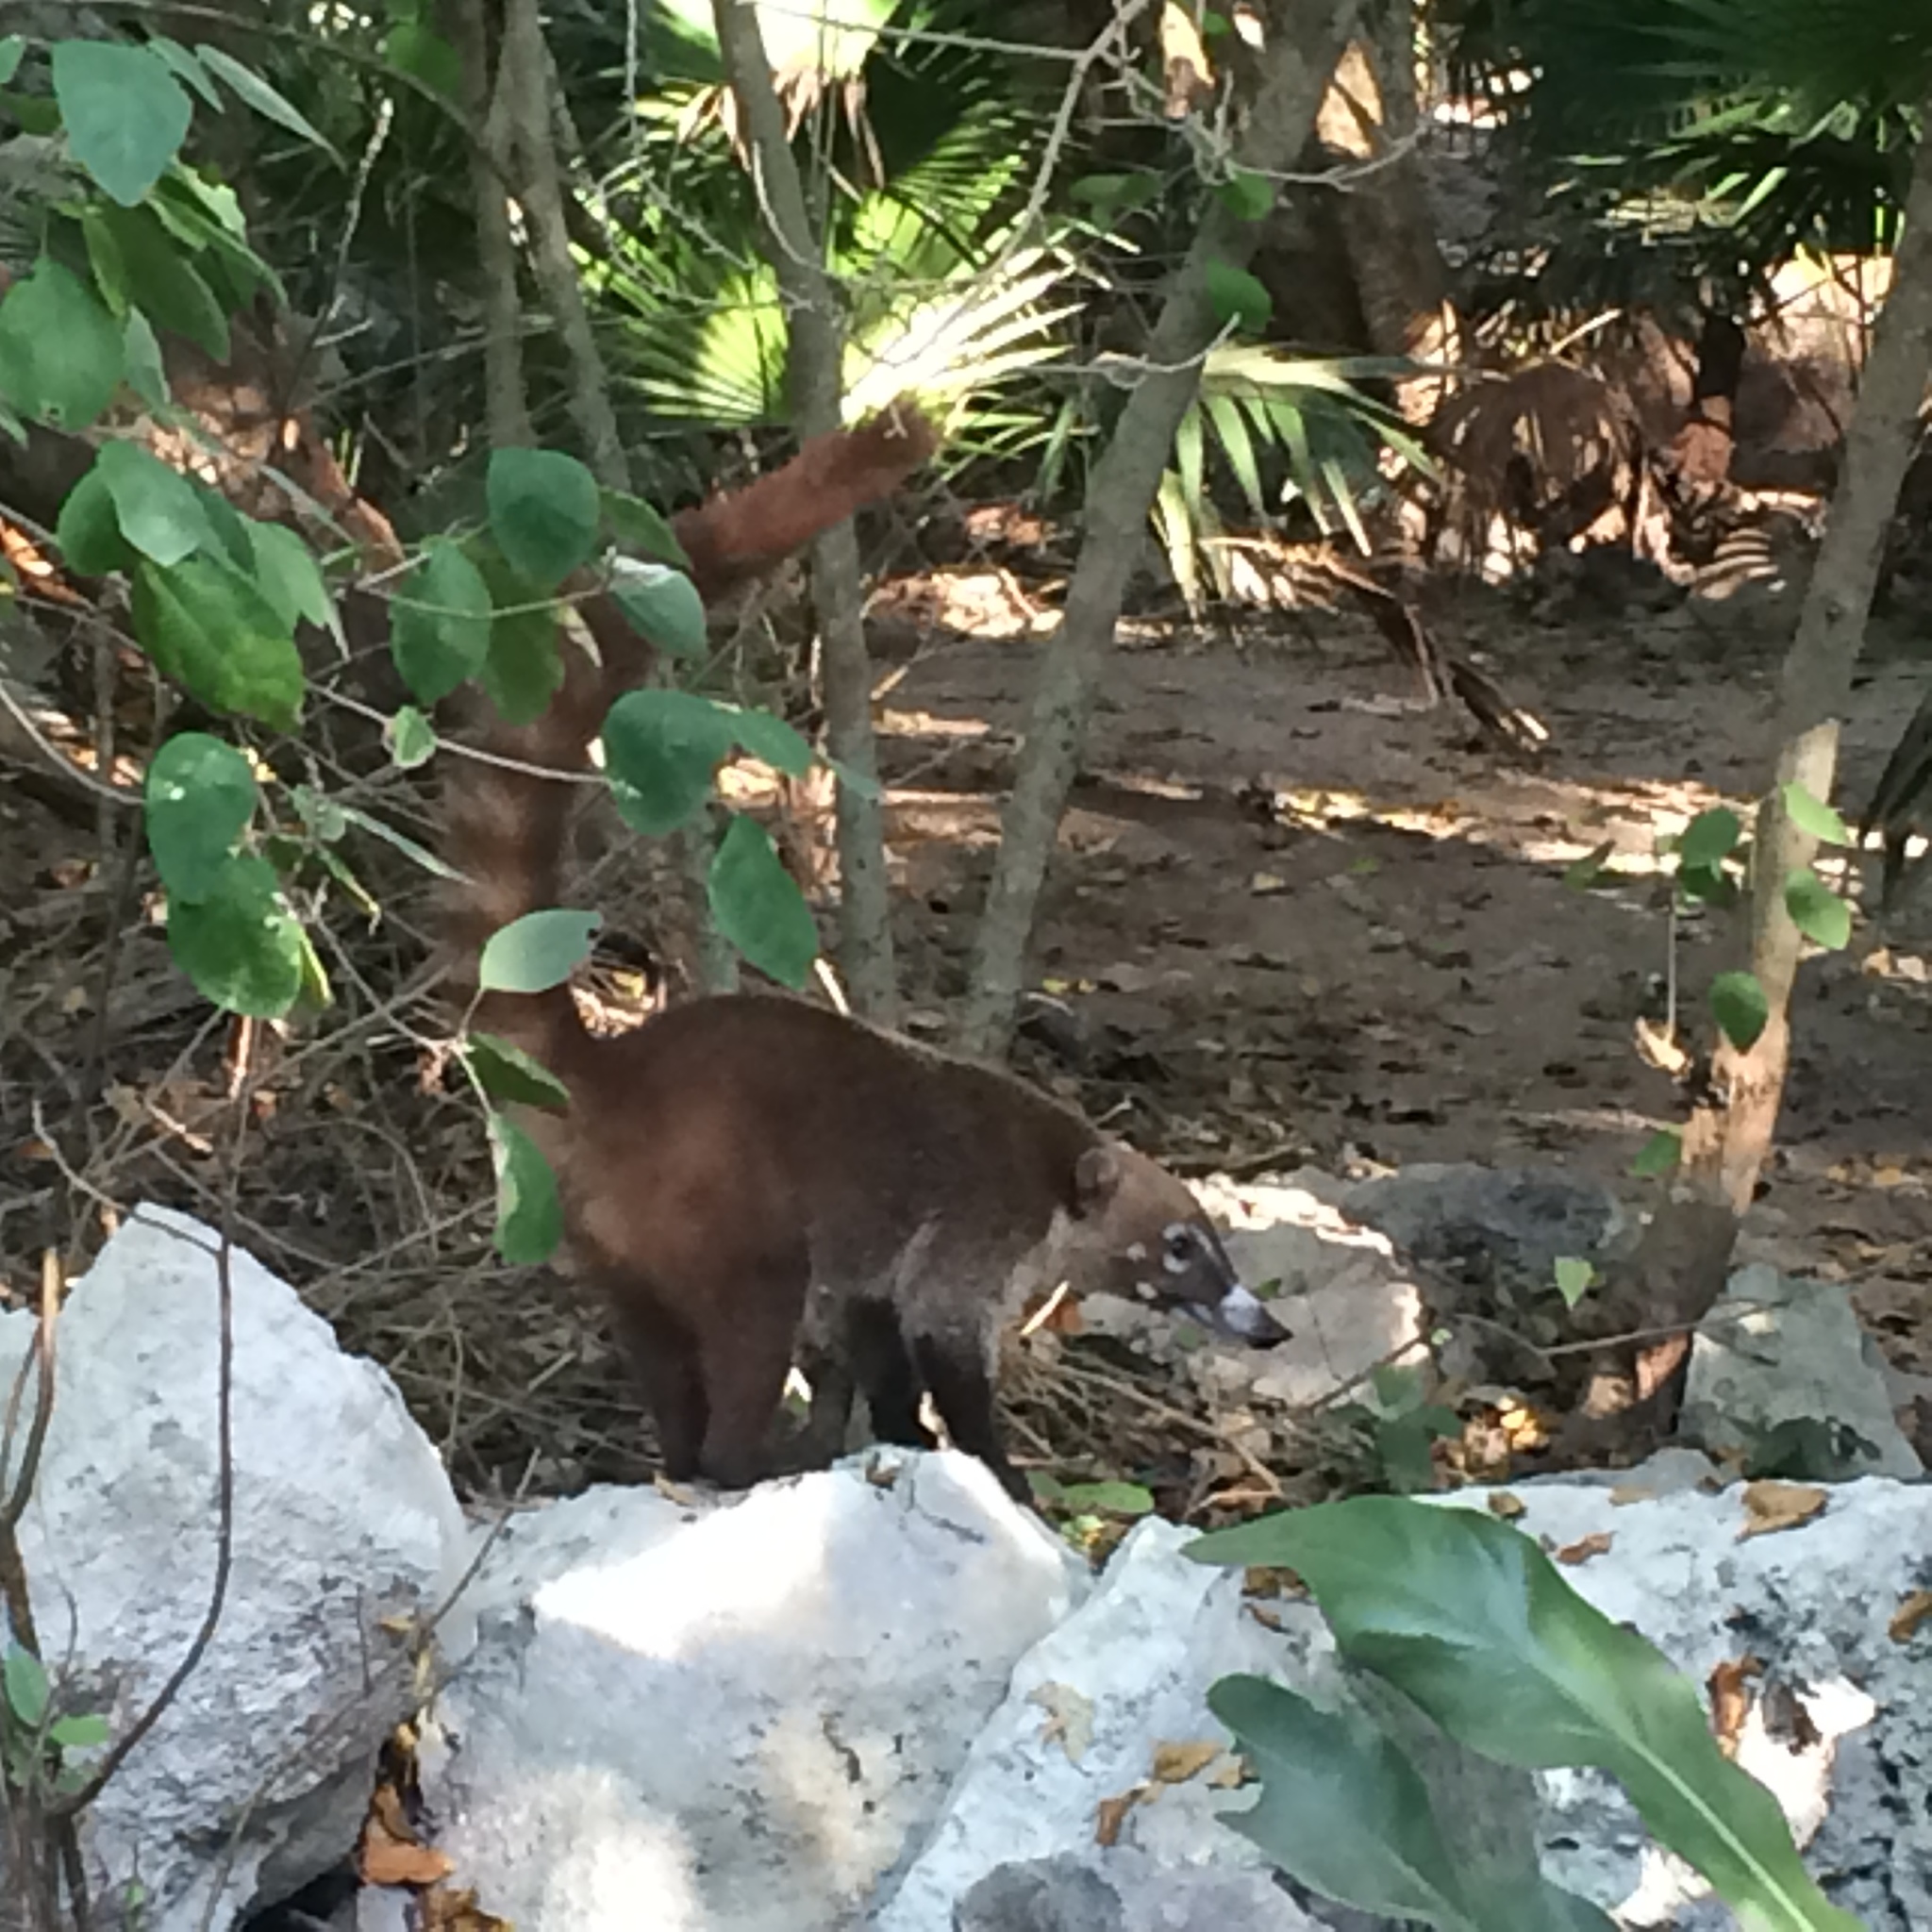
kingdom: Animalia
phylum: Chordata
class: Mammalia
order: Carnivora
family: Procyonidae
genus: Nasua
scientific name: Nasua narica
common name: White-nosed coati
